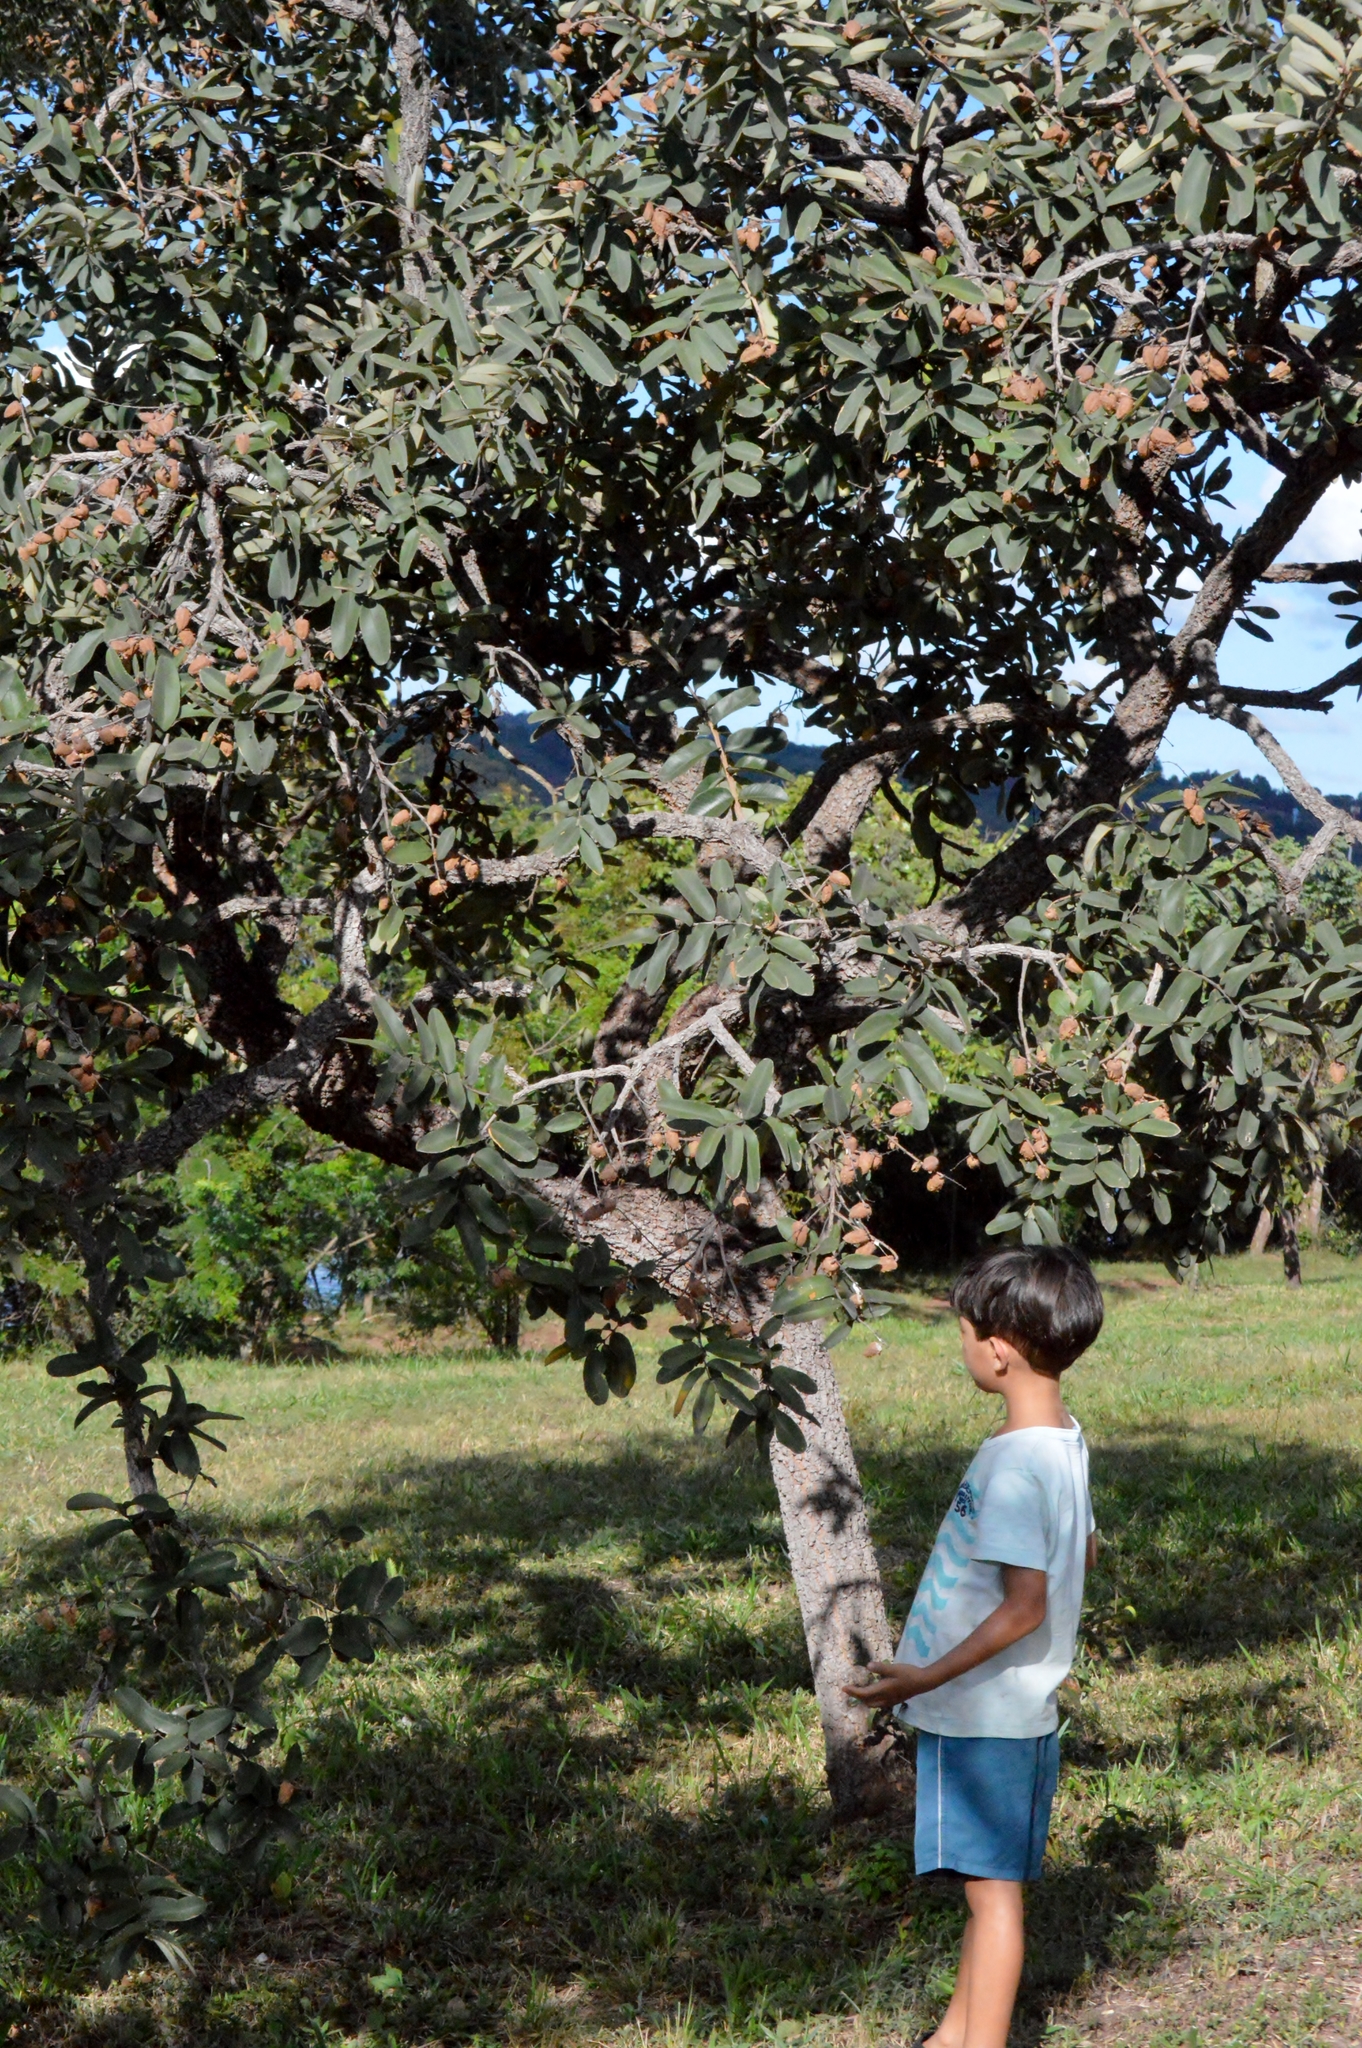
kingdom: Plantae
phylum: Tracheophyta
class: Magnoliopsida
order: Myrtales
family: Vochysiaceae
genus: Qualea
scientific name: Qualea parviflora
